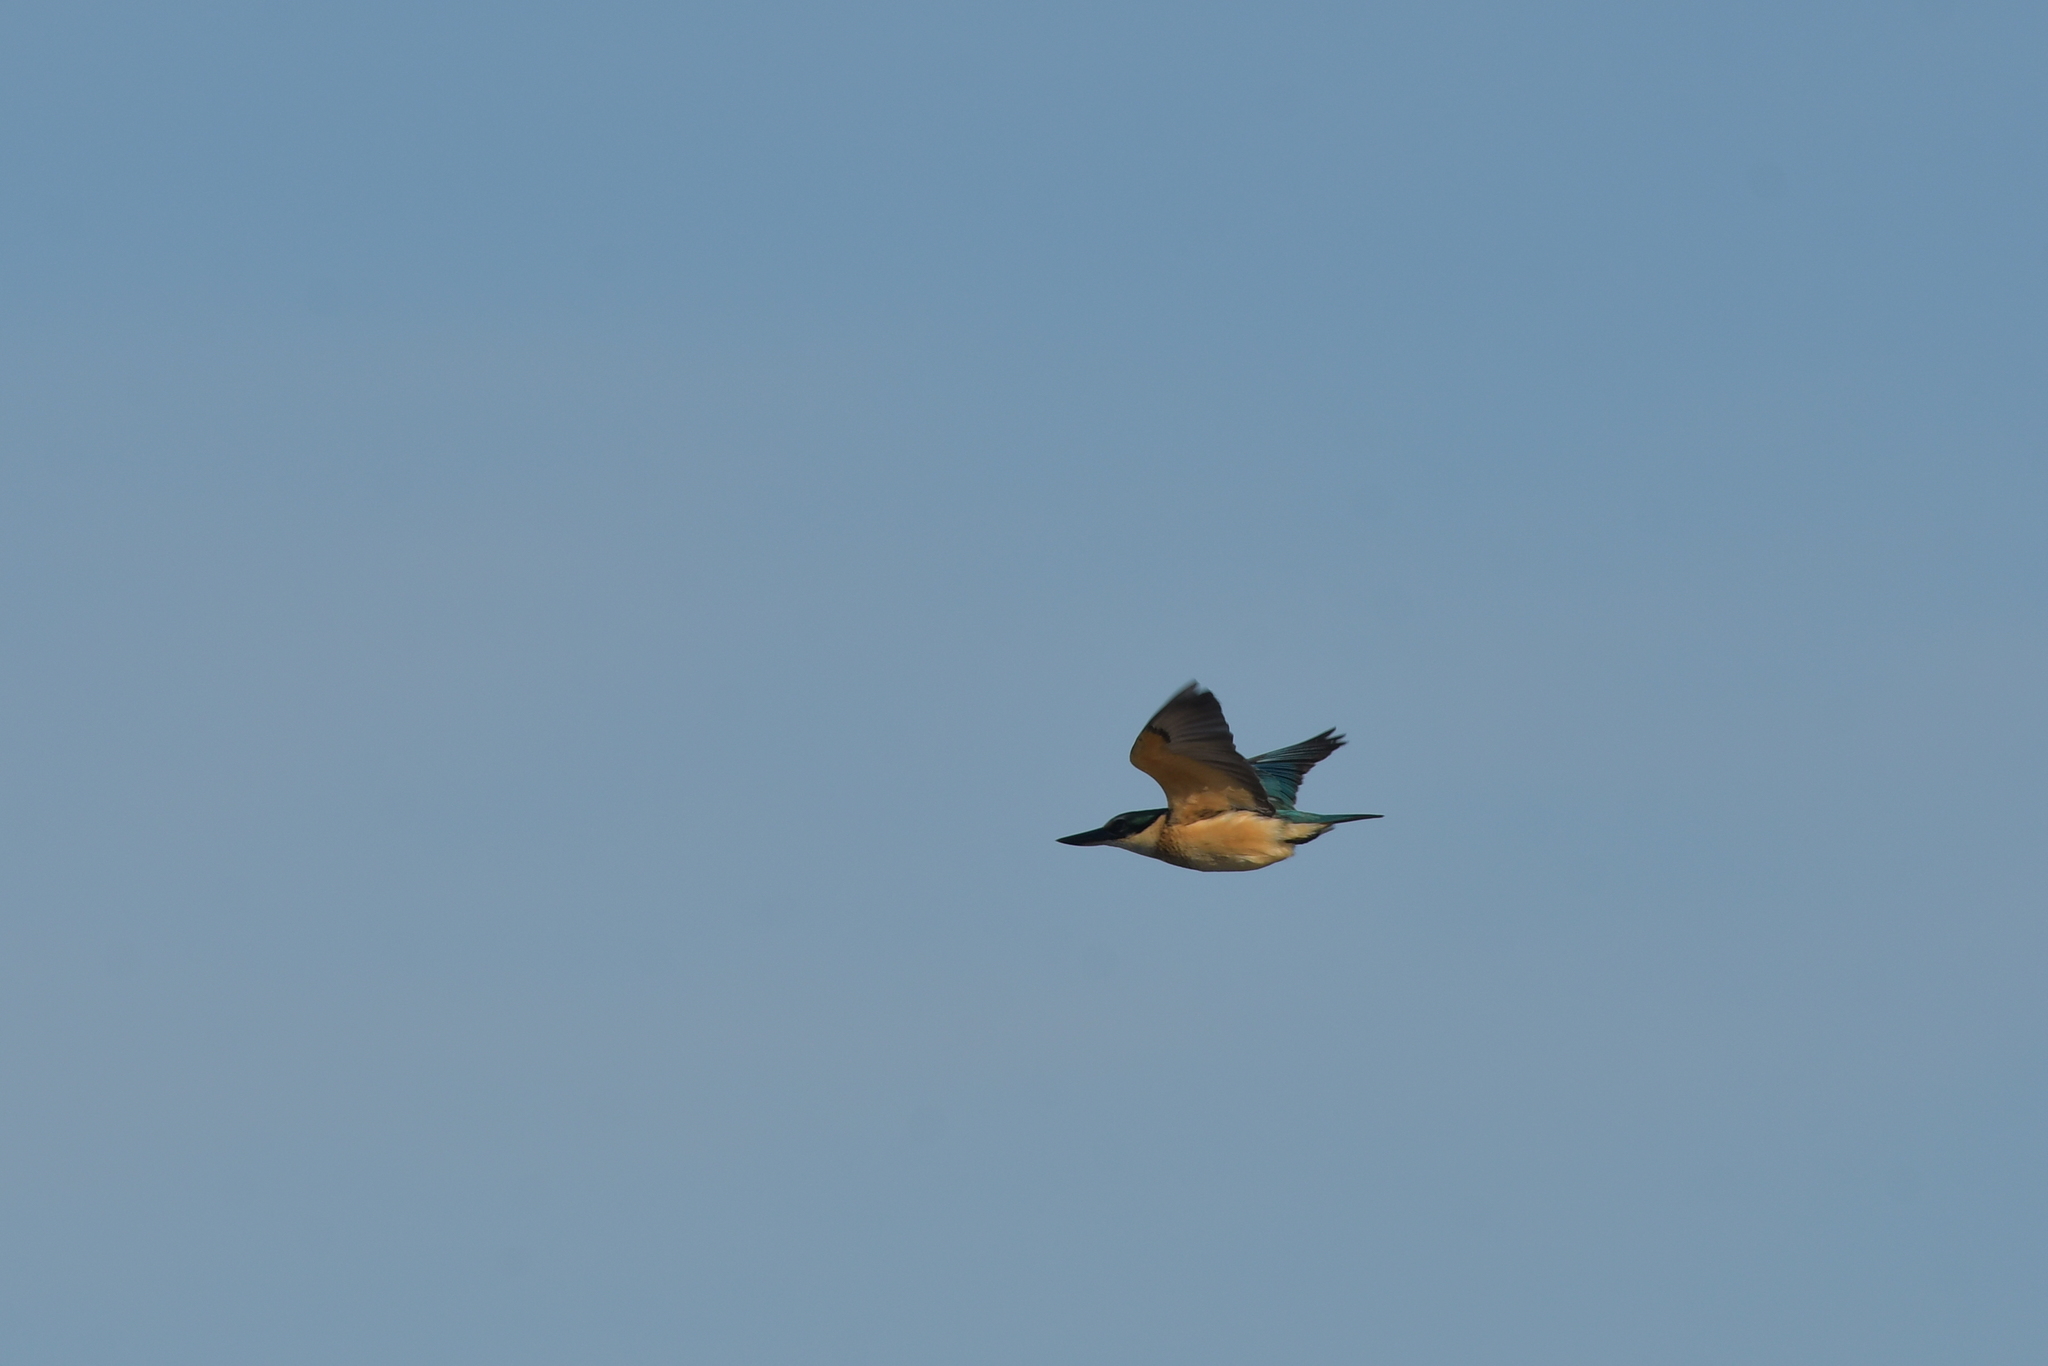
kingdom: Animalia
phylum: Chordata
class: Aves
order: Coraciiformes
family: Alcedinidae
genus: Todiramphus
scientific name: Todiramphus sanctus
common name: Sacred kingfisher
